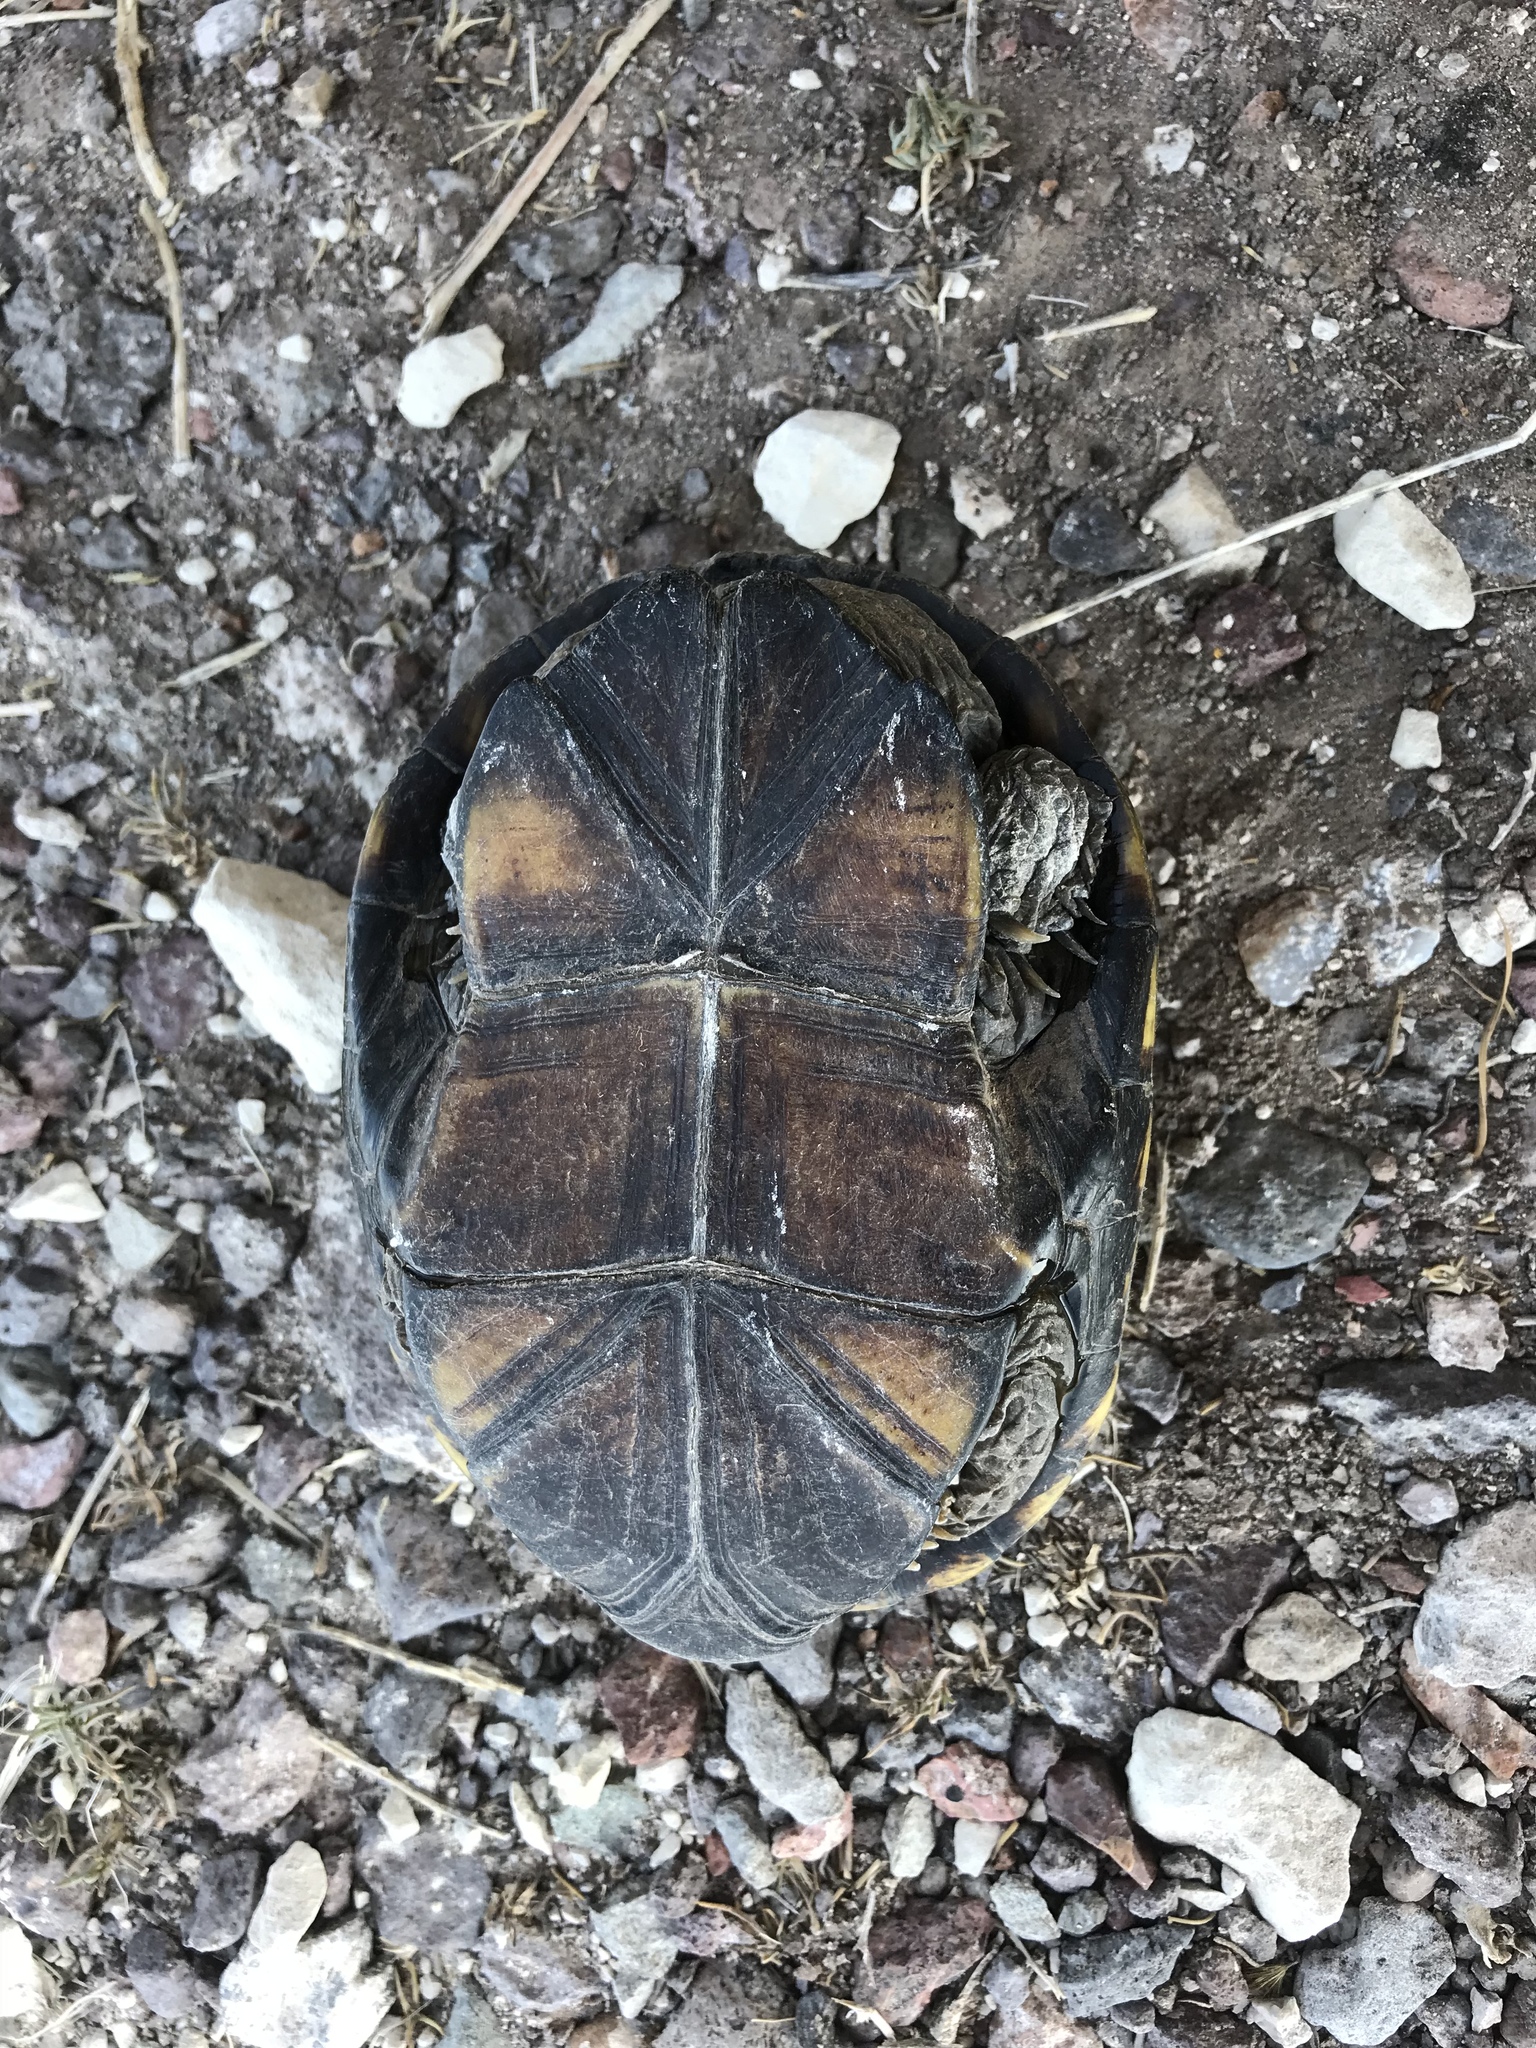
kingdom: Animalia
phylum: Chordata
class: Testudines
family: Kinosternidae
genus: Kinosternon
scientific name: Kinosternon flavescens
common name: Yellow mud turtle
